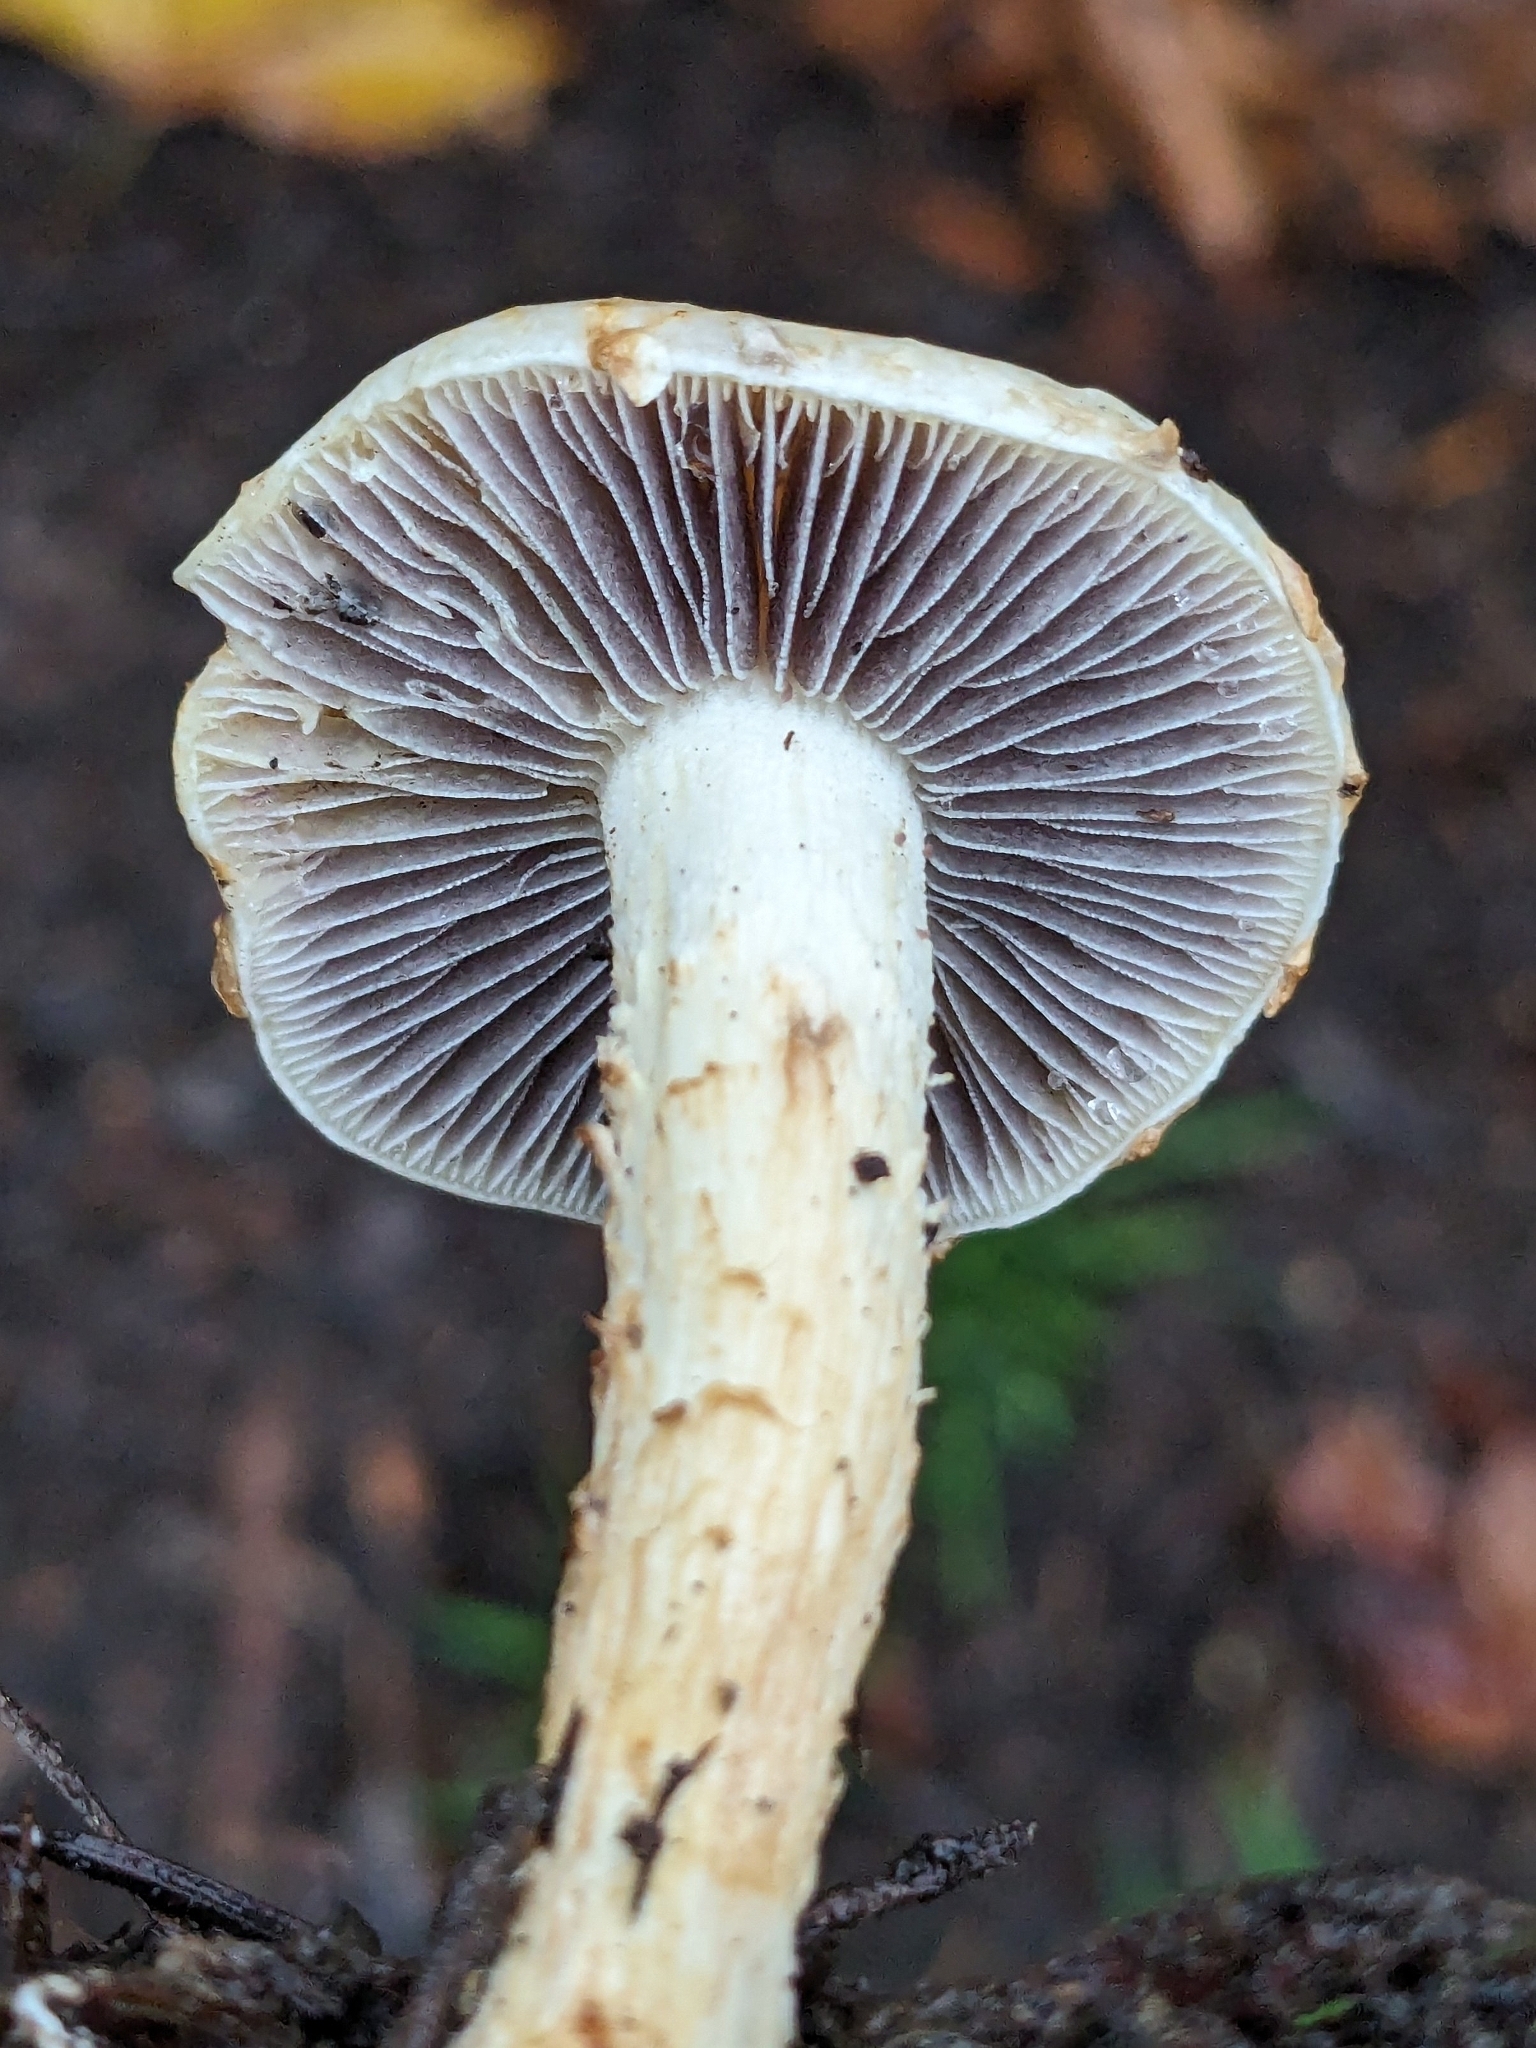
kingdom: Fungi
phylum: Basidiomycota
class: Agaricomycetes
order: Agaricales
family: Strophariaceae
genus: Leratiomyces
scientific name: Leratiomyces percevalii
